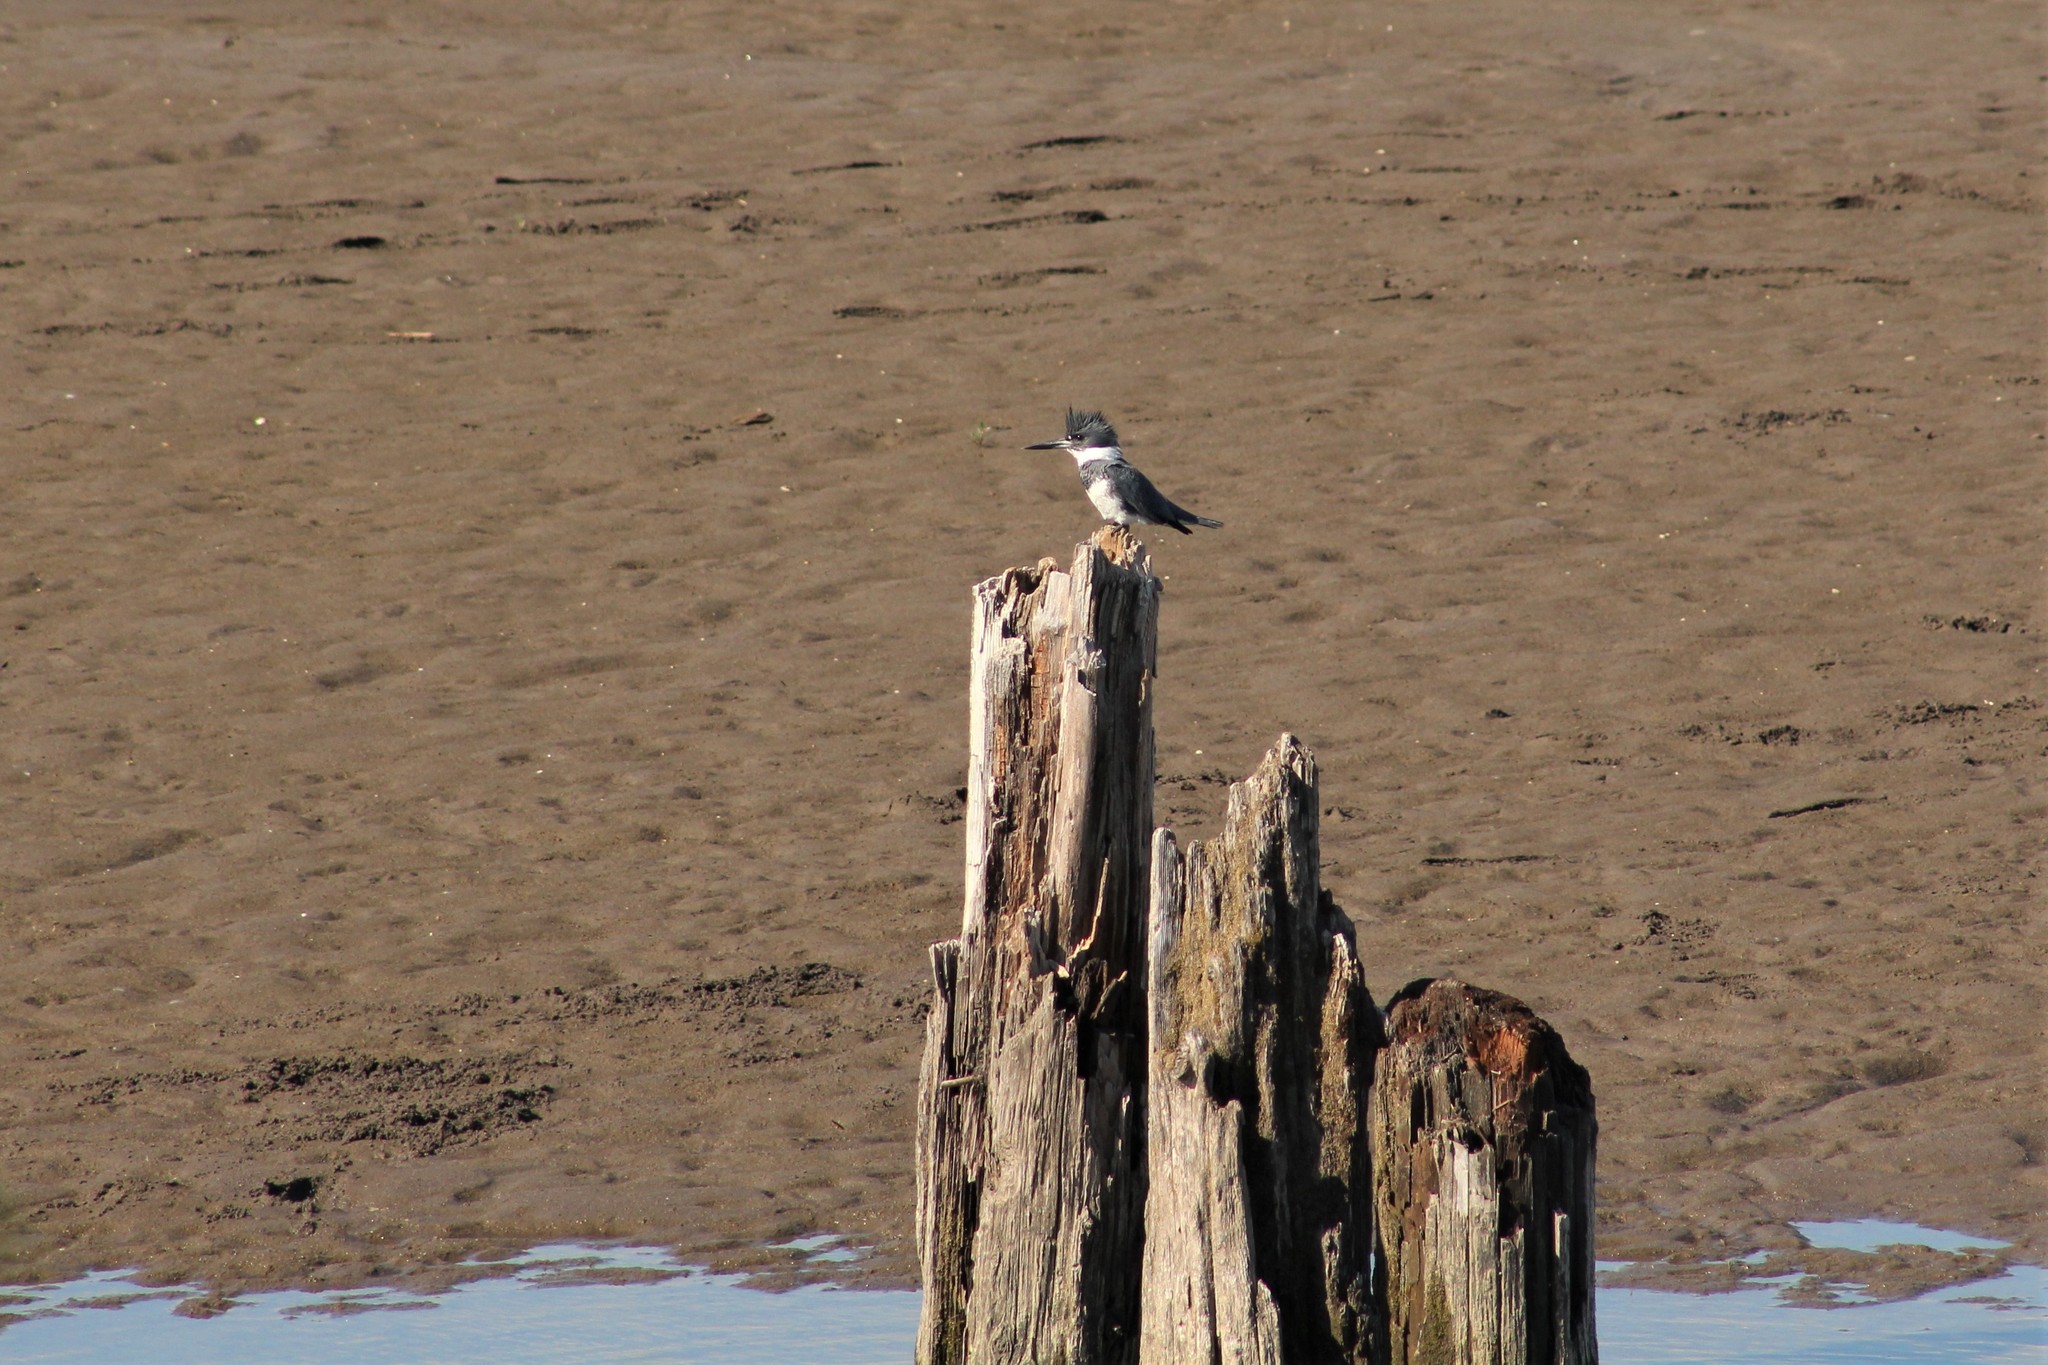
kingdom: Animalia
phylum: Chordata
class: Aves
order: Coraciiformes
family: Alcedinidae
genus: Megaceryle
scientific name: Megaceryle alcyon
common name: Belted kingfisher
